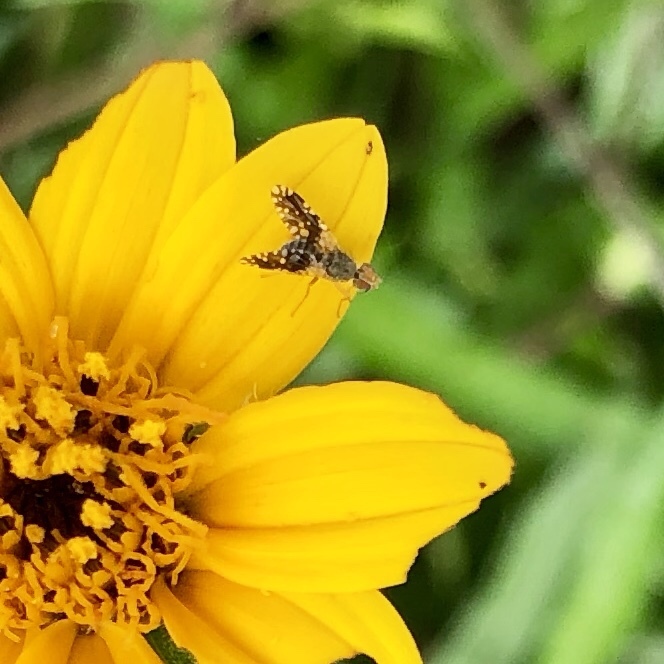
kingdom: Plantae
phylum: Tracheophyta
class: Magnoliopsida
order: Asterales
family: Asteraceae
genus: Wedelia
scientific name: Wedelia acapulcensis
